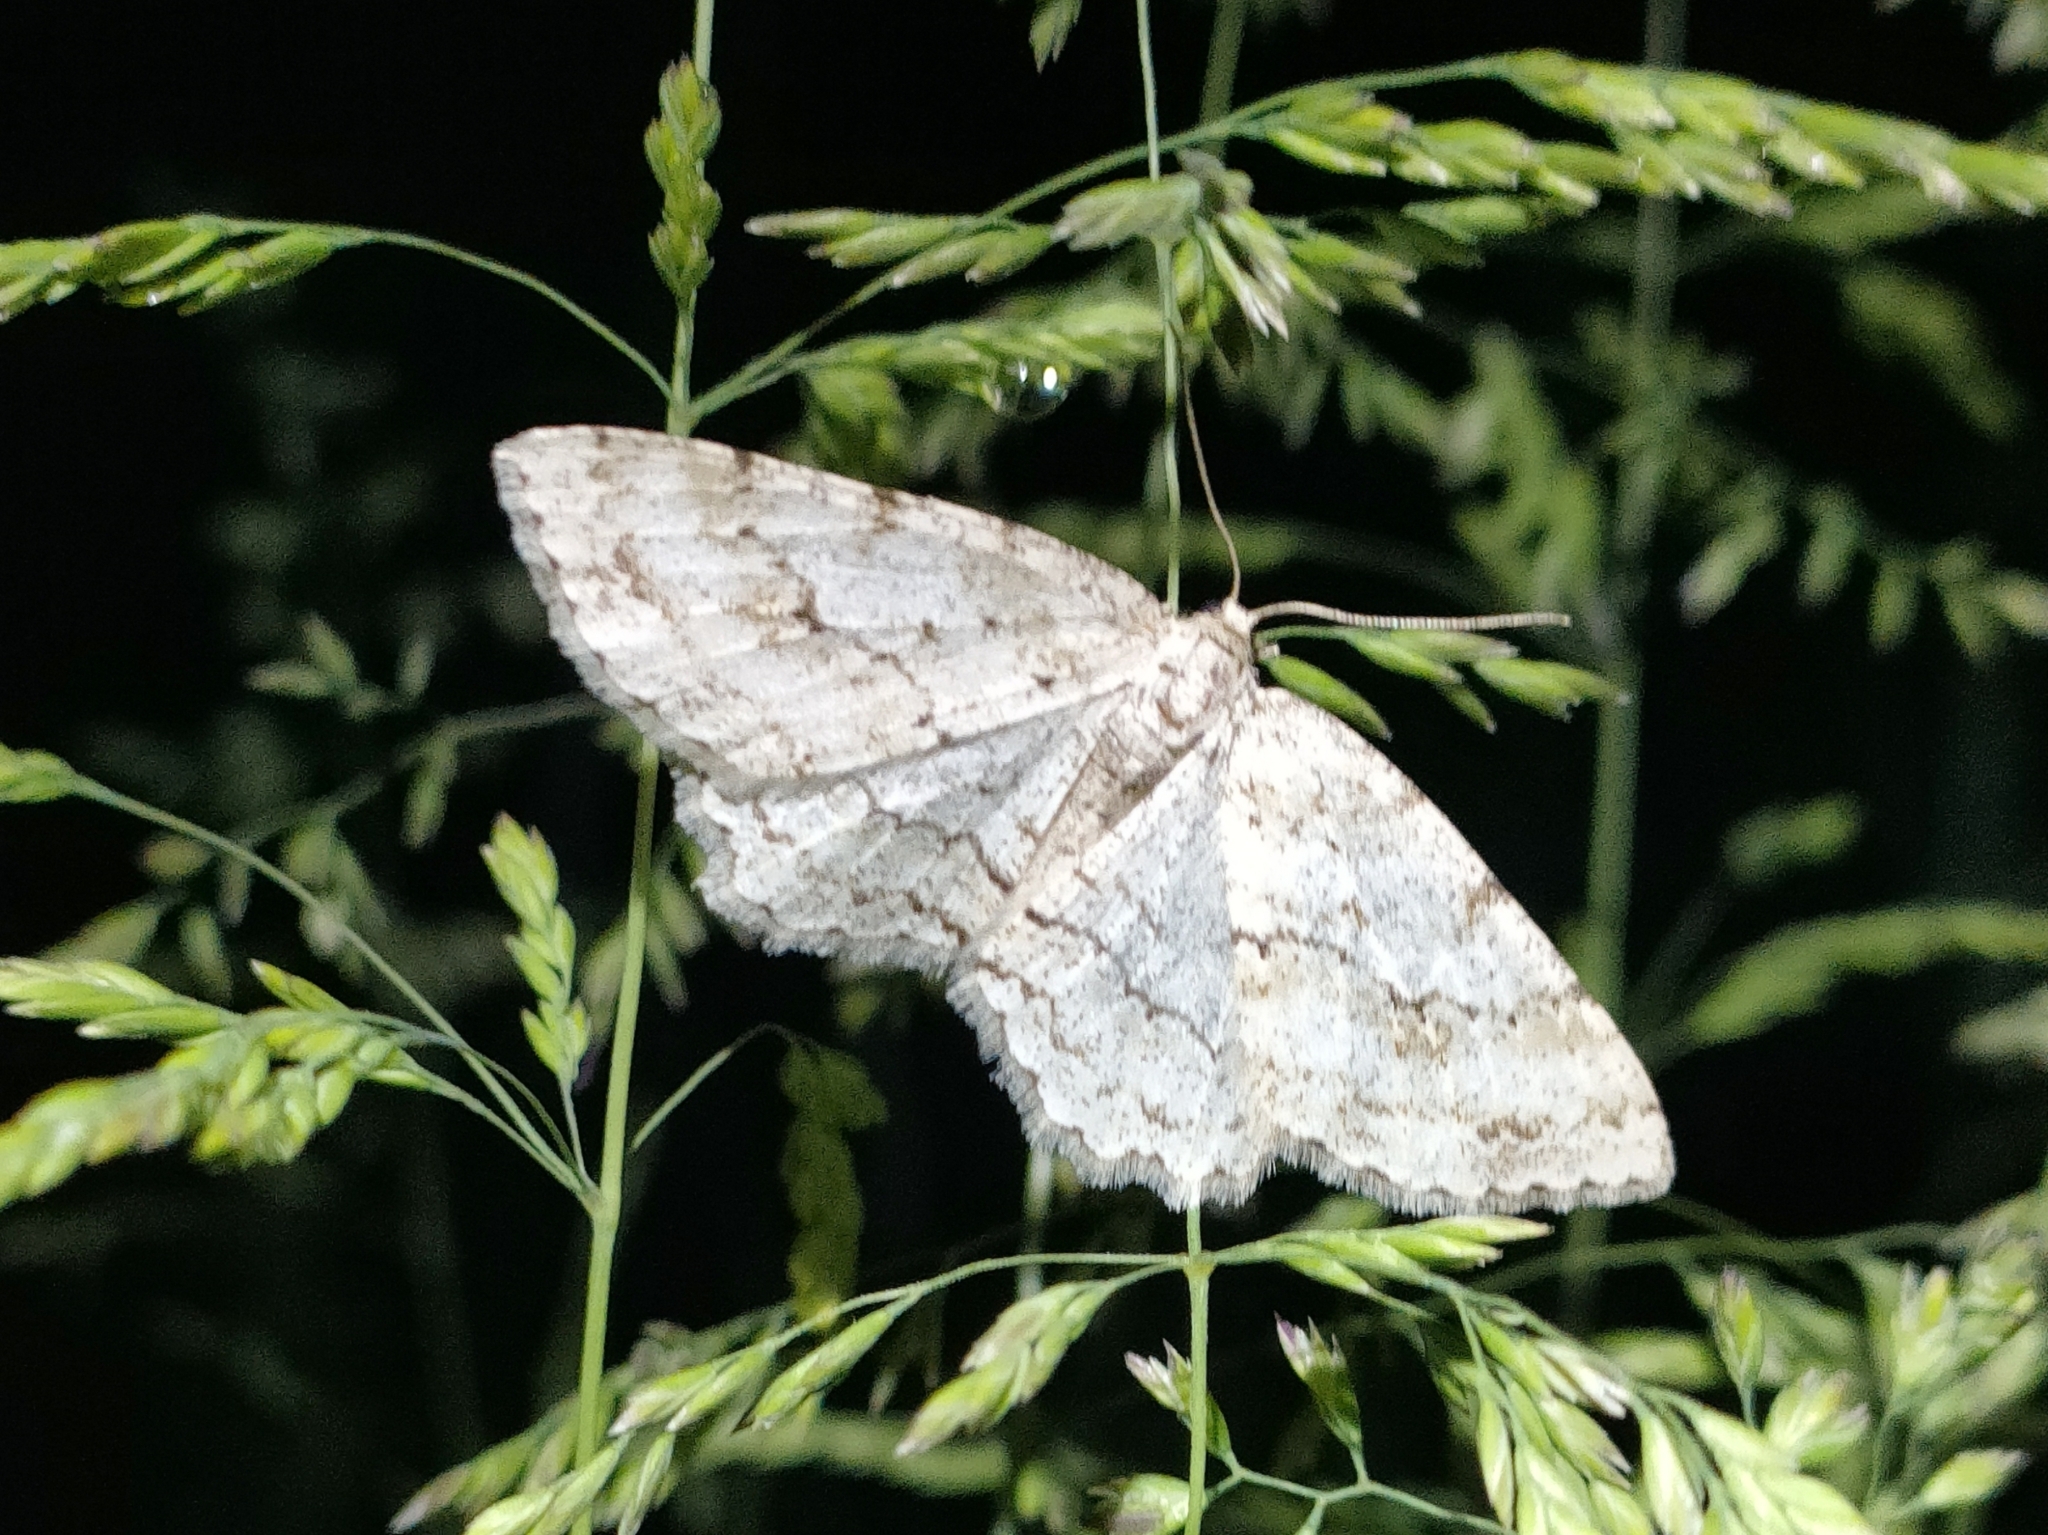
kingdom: Animalia
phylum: Arthropoda
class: Insecta
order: Lepidoptera
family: Geometridae
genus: Ectropis
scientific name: Ectropis crepuscularia
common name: Engrailed
